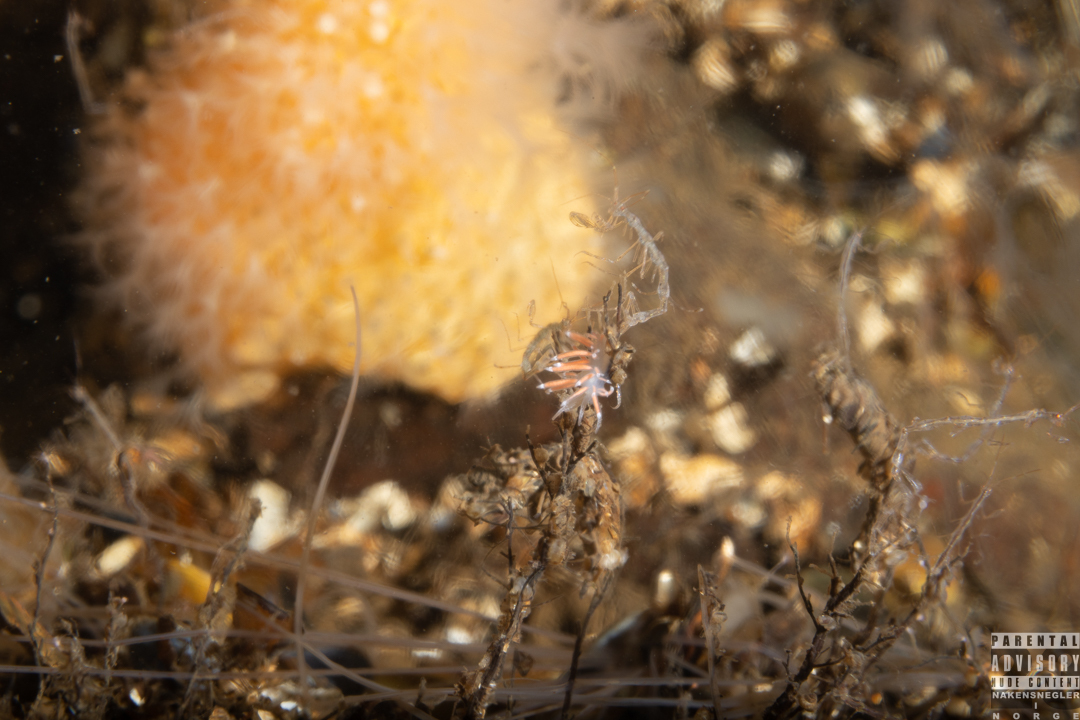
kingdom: Animalia
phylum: Mollusca
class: Gastropoda
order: Nudibranchia
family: Coryphellidae
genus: Coryphella
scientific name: Coryphella gracilis
